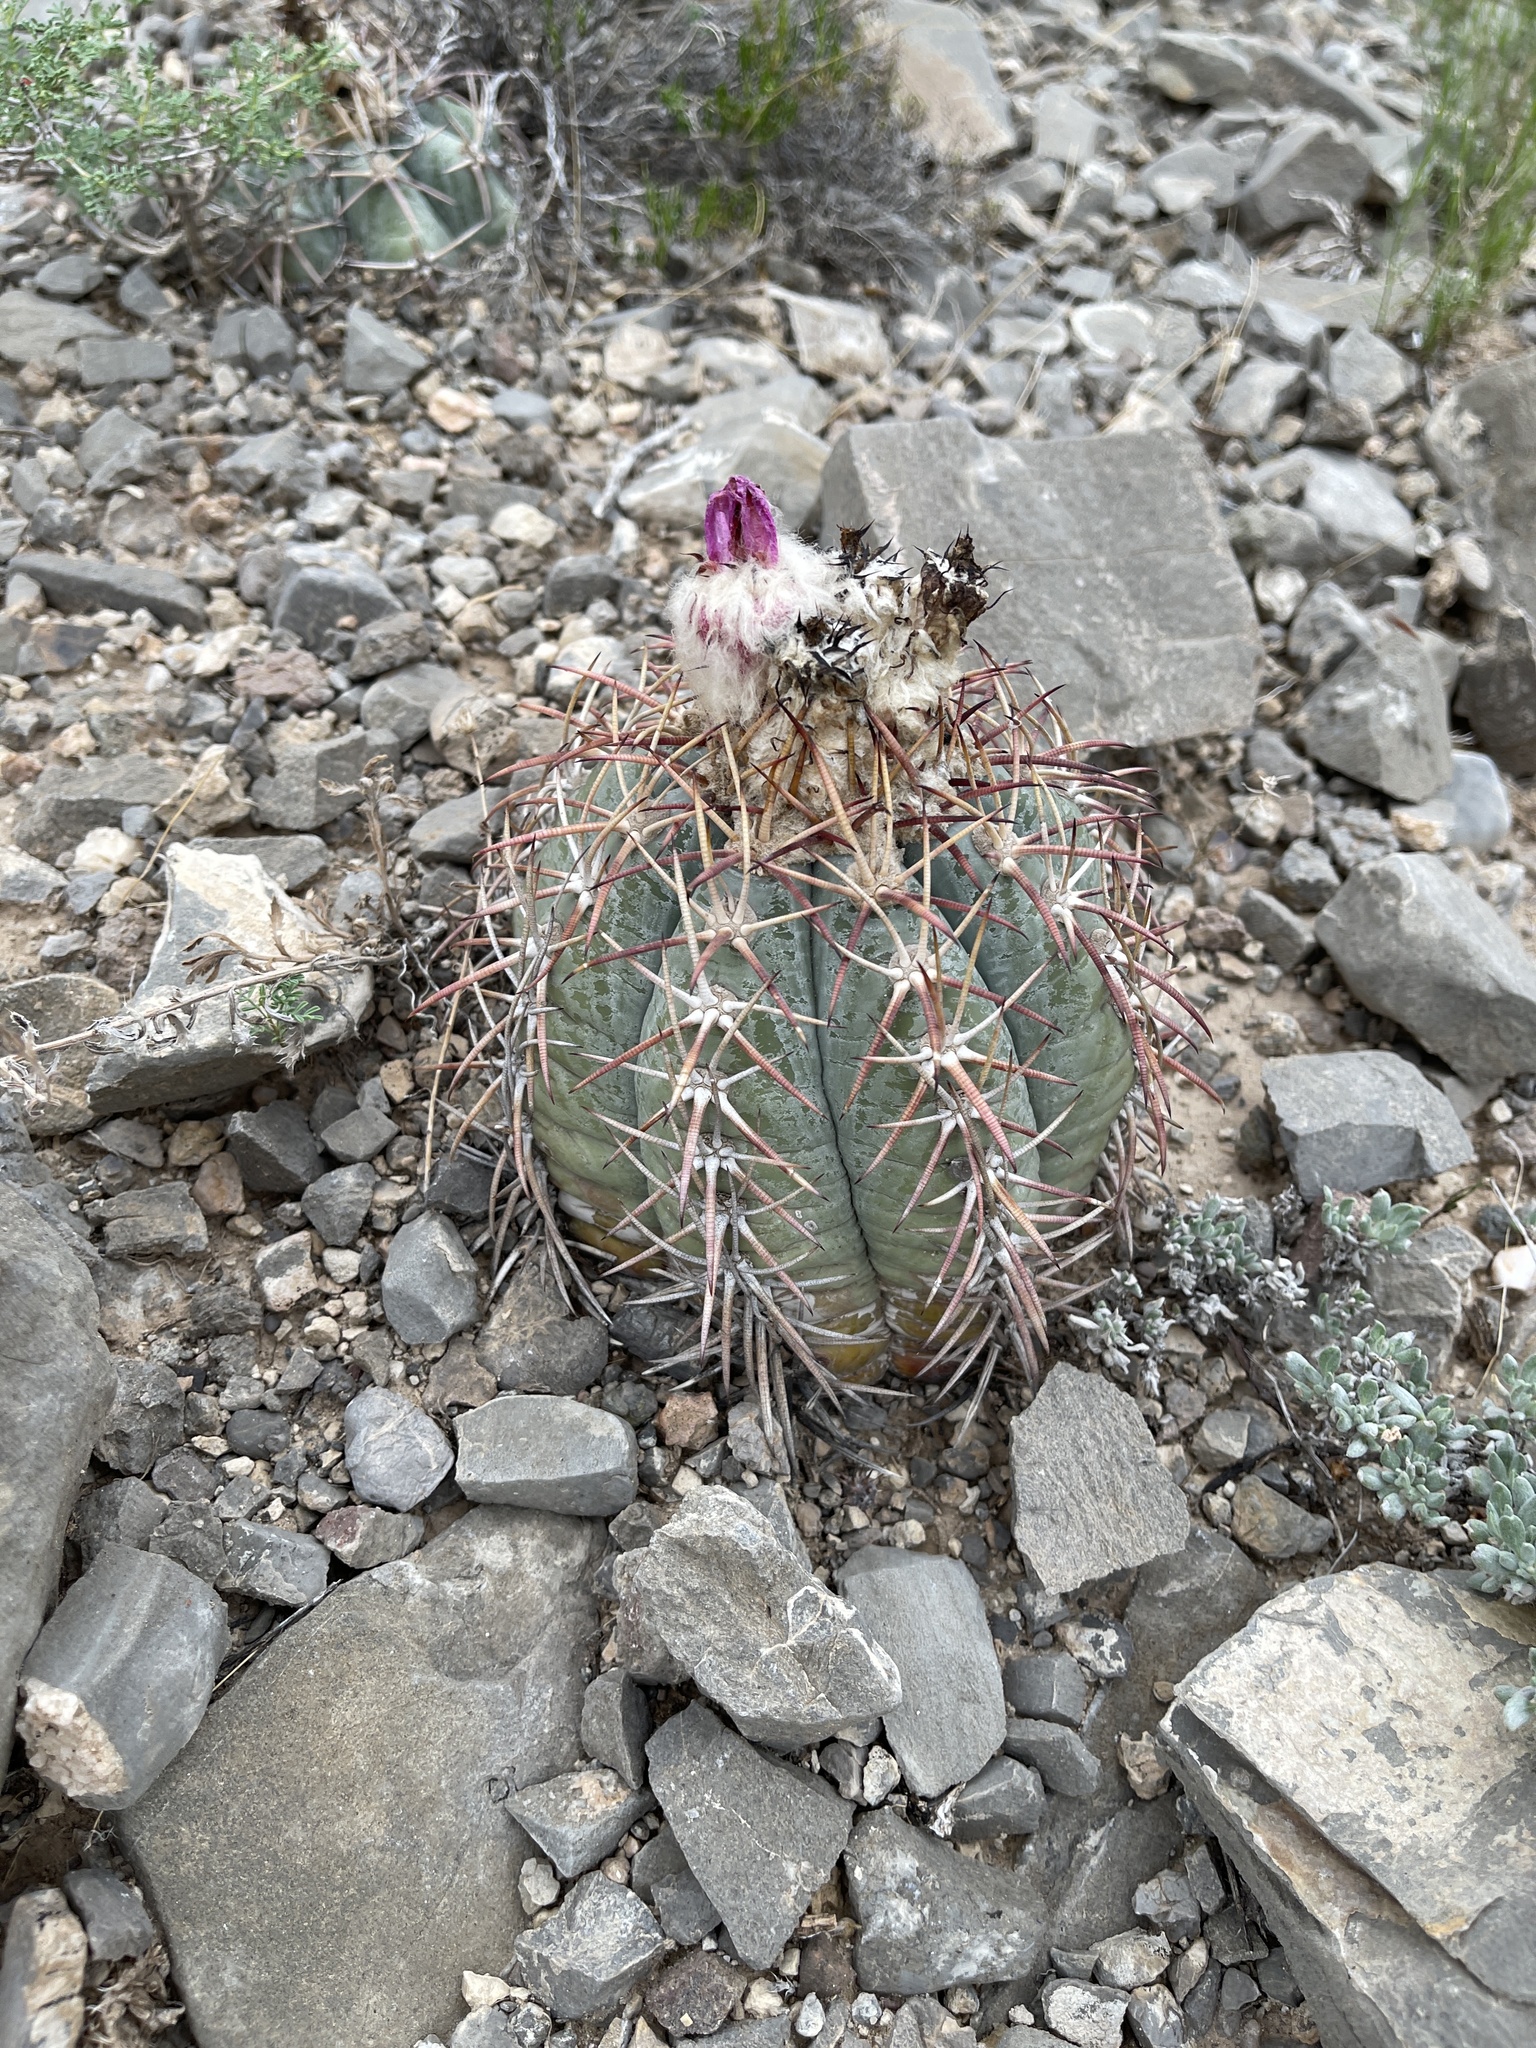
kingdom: Plantae
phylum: Tracheophyta
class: Magnoliopsida
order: Caryophyllales
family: Cactaceae
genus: Echinocactus
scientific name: Echinocactus horizonthalonius
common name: Devilshead
